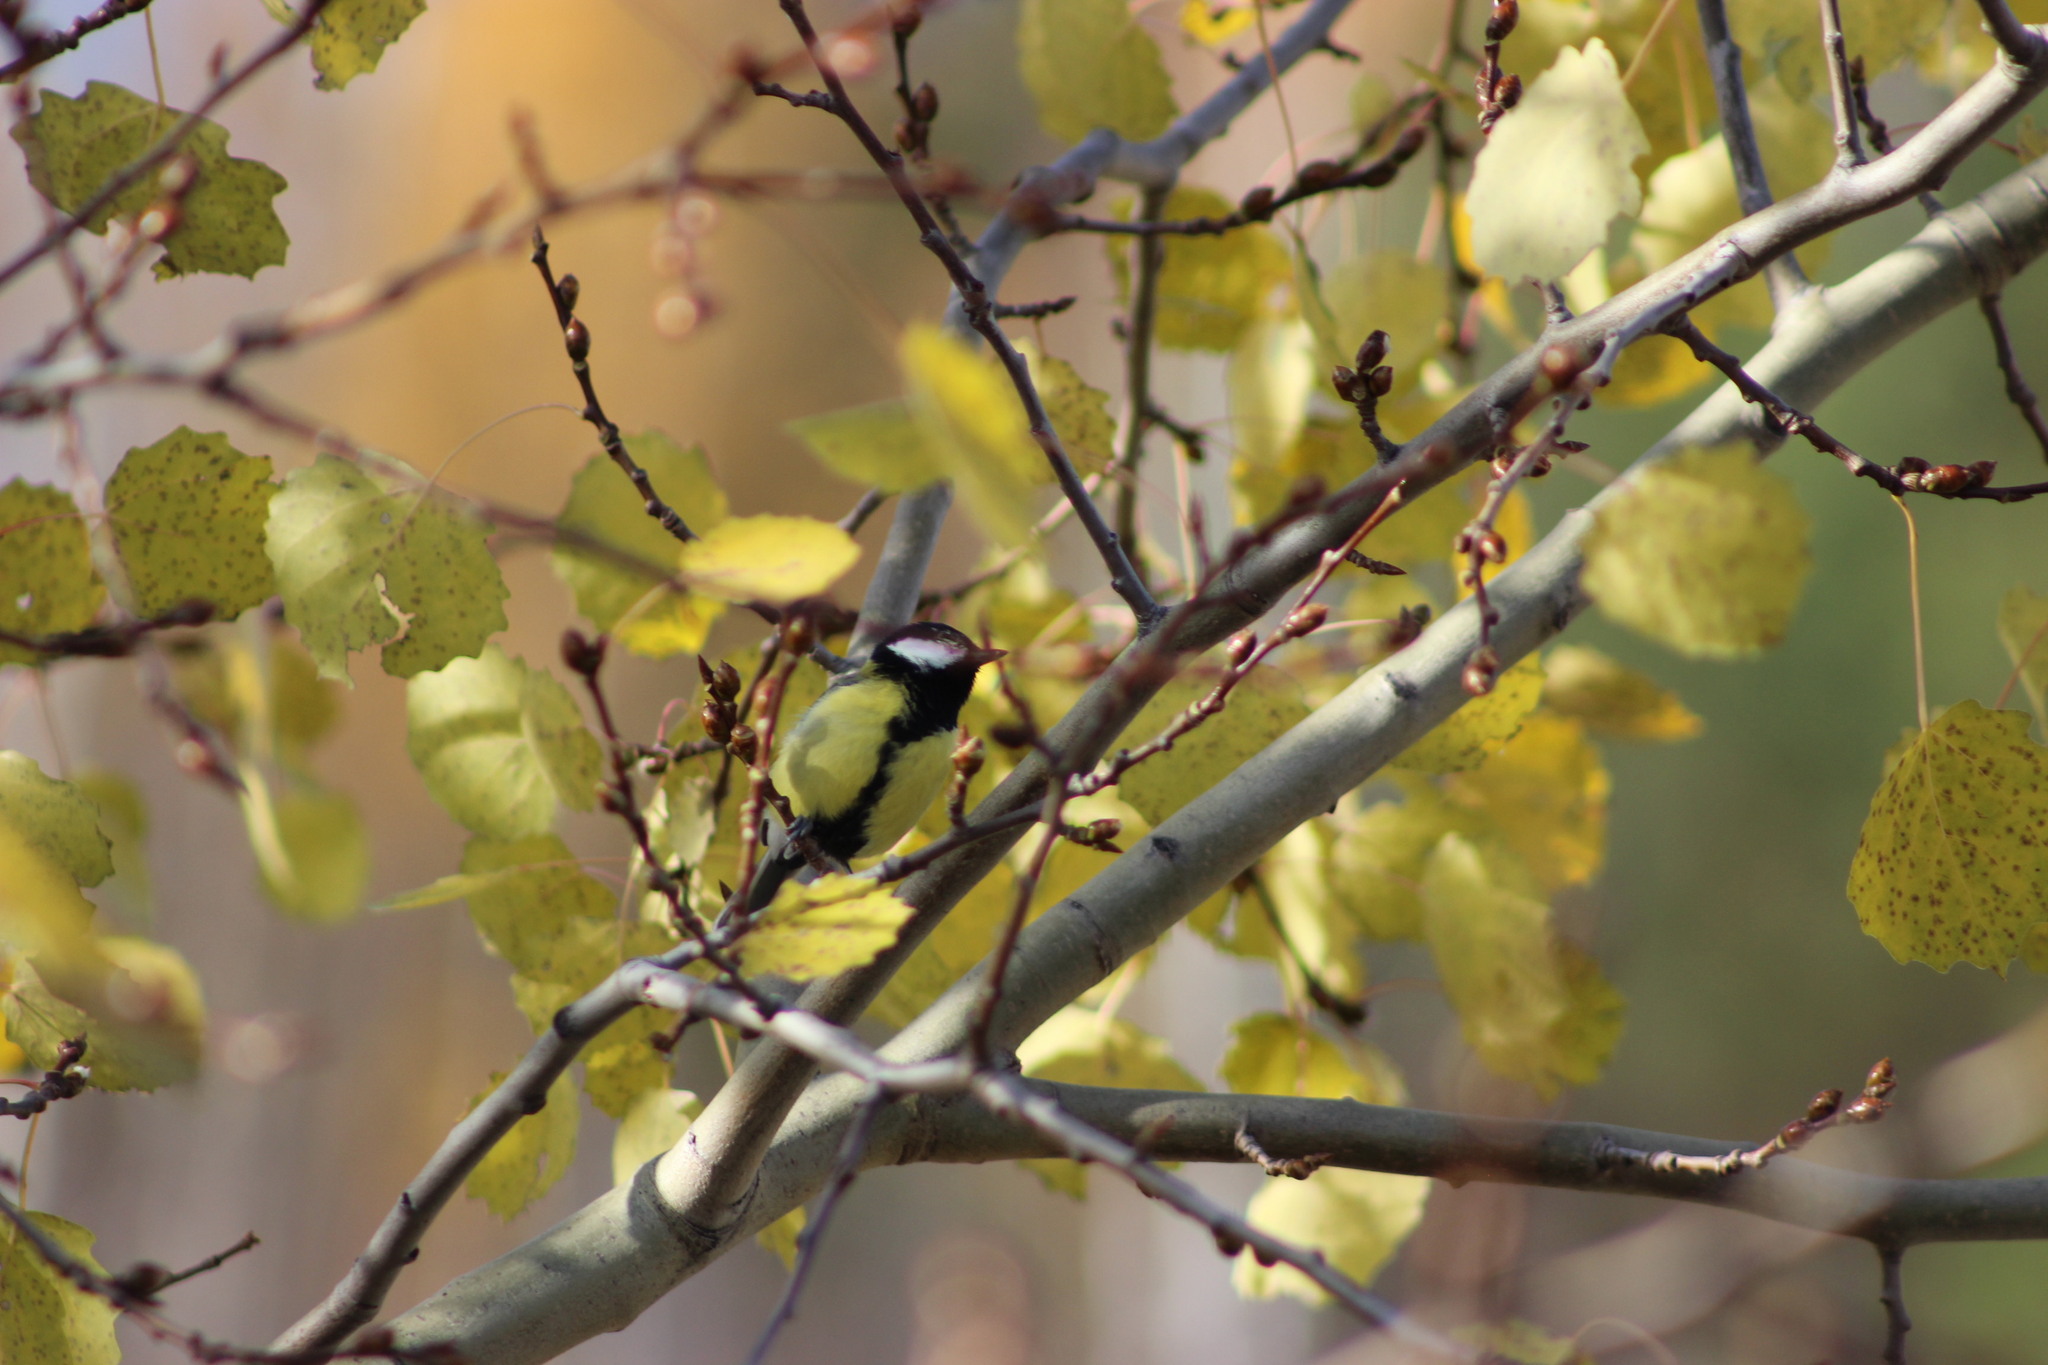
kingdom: Animalia
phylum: Chordata
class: Aves
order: Passeriformes
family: Paridae
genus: Parus
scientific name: Parus major
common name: Great tit
